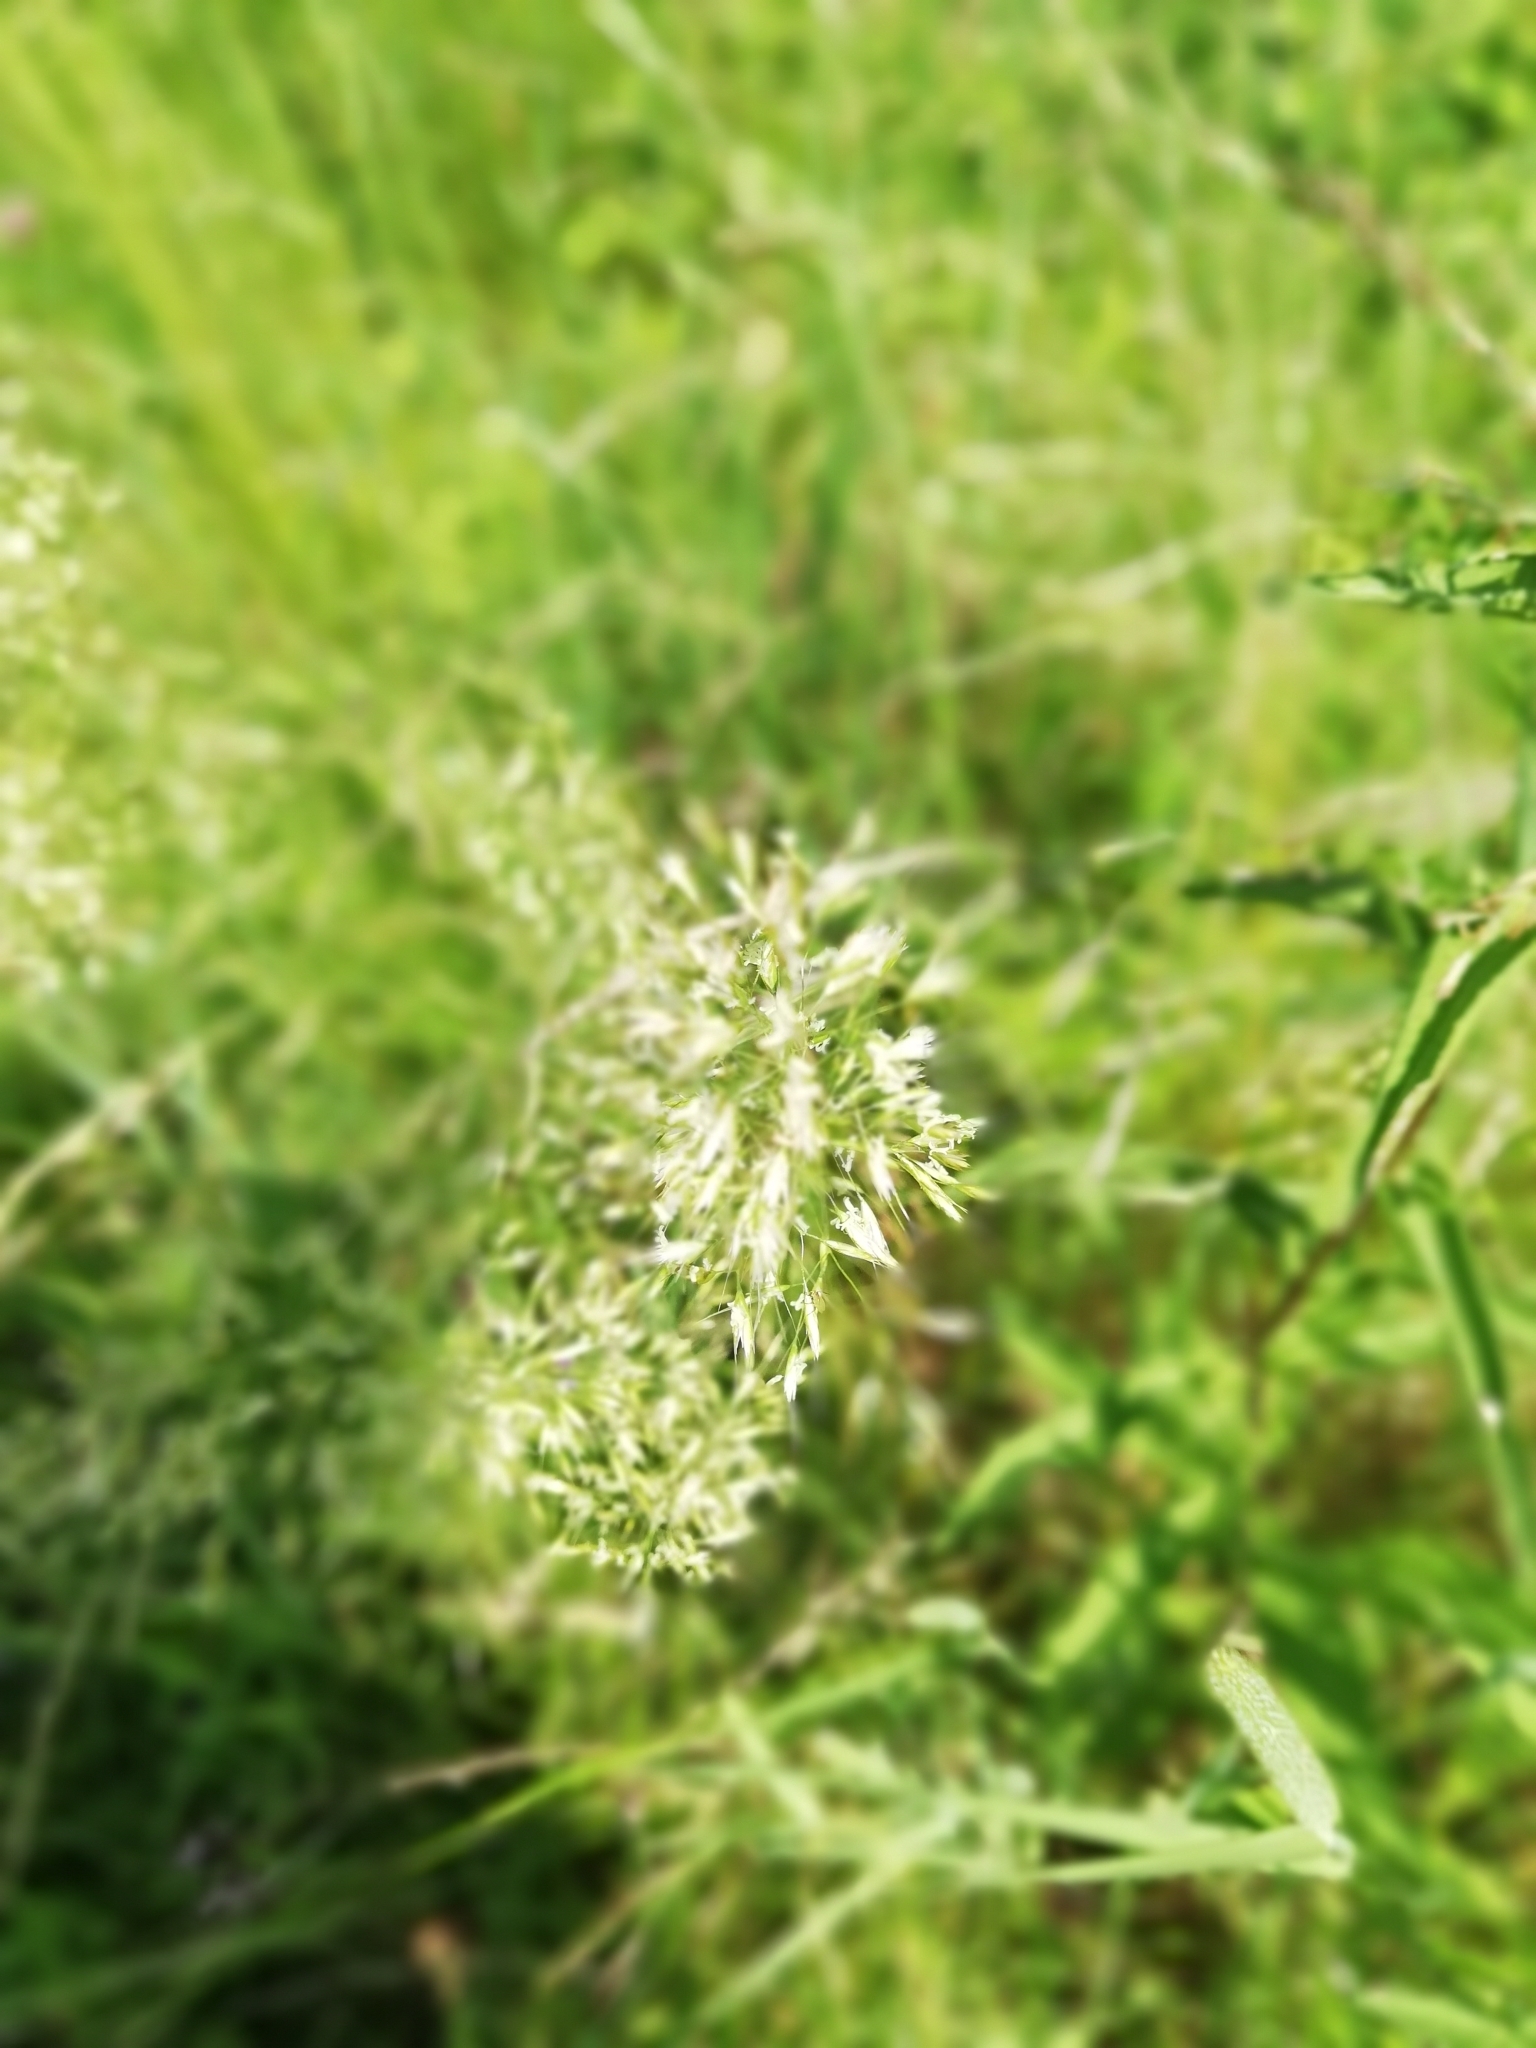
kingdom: Plantae
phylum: Tracheophyta
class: Liliopsida
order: Poales
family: Poaceae
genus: Trisetum
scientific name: Trisetum flavescens
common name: Yellow oat-grass
